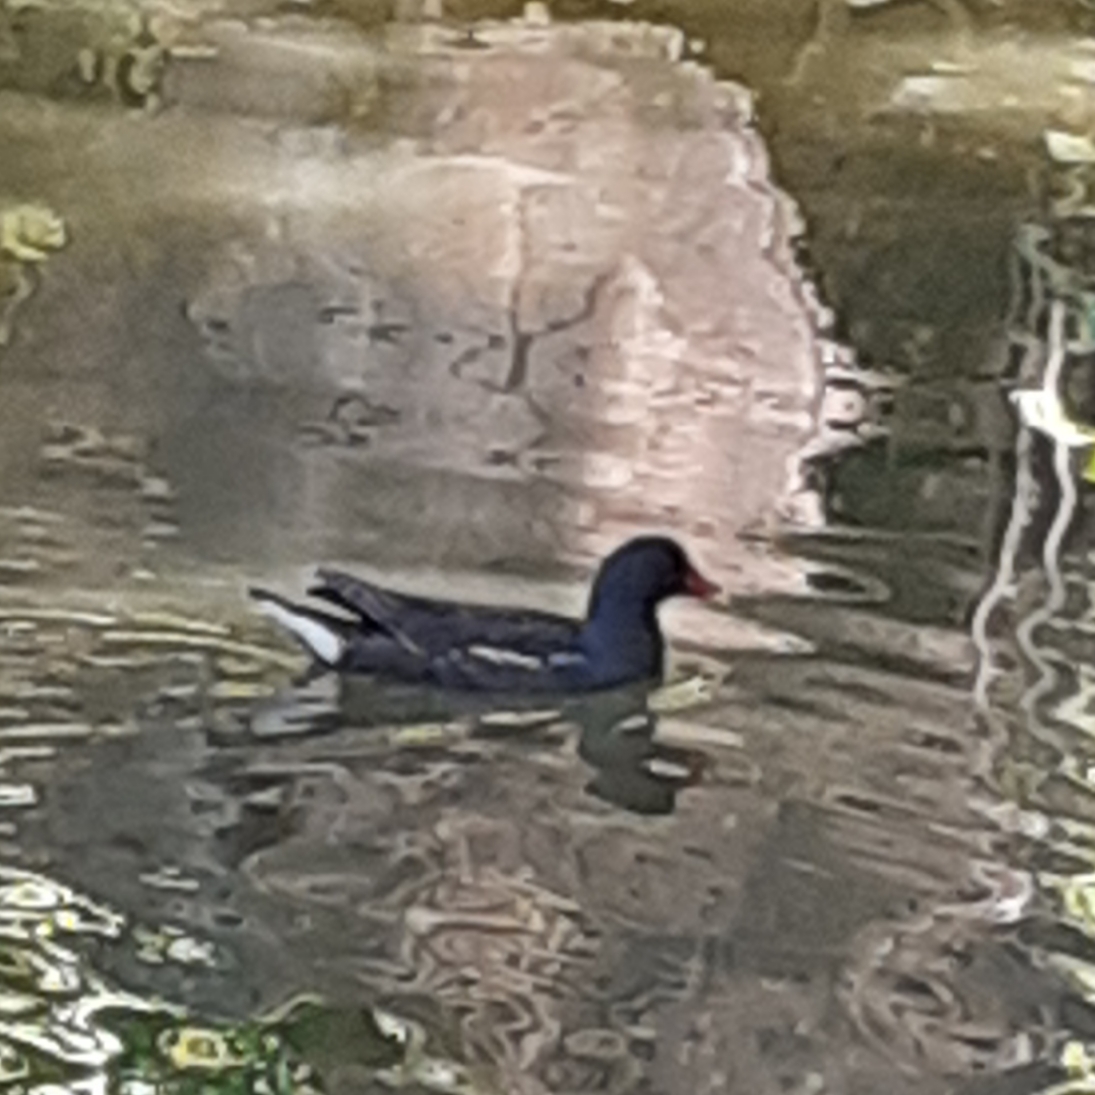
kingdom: Animalia
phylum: Chordata
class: Aves
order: Gruiformes
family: Rallidae
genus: Gallinula
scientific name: Gallinula chloropus
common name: Common moorhen
